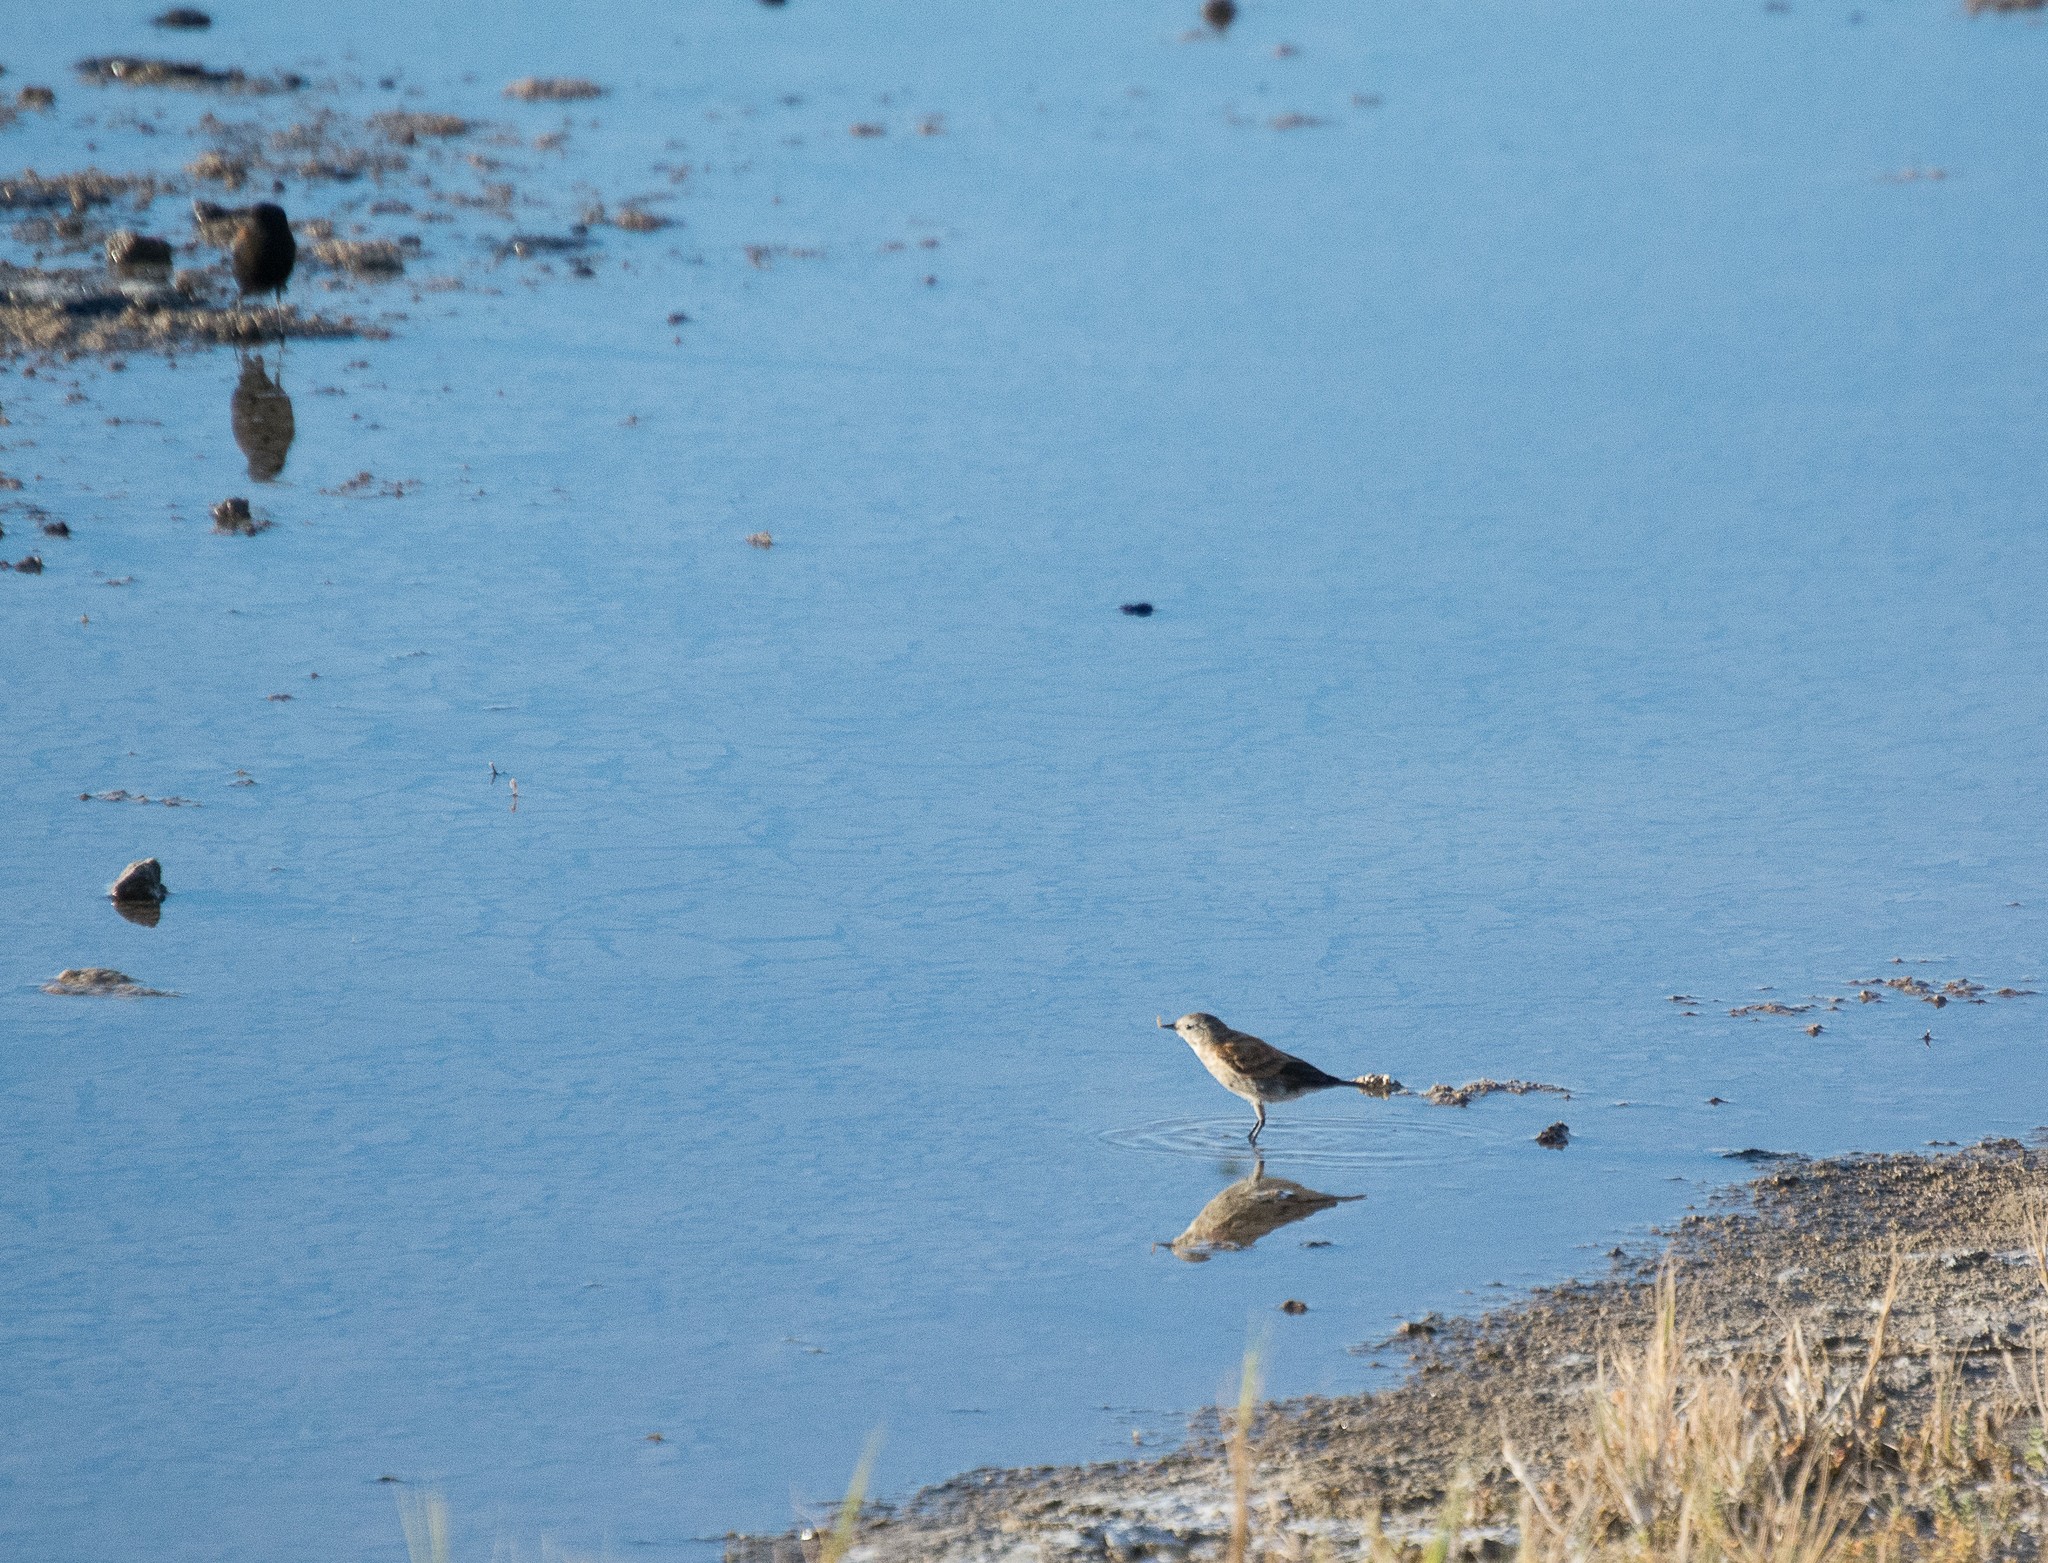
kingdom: Animalia
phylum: Chordata
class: Aves
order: Passeriformes
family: Tyrannidae
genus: Lessonia
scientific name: Lessonia rufa
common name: Austral negrito
